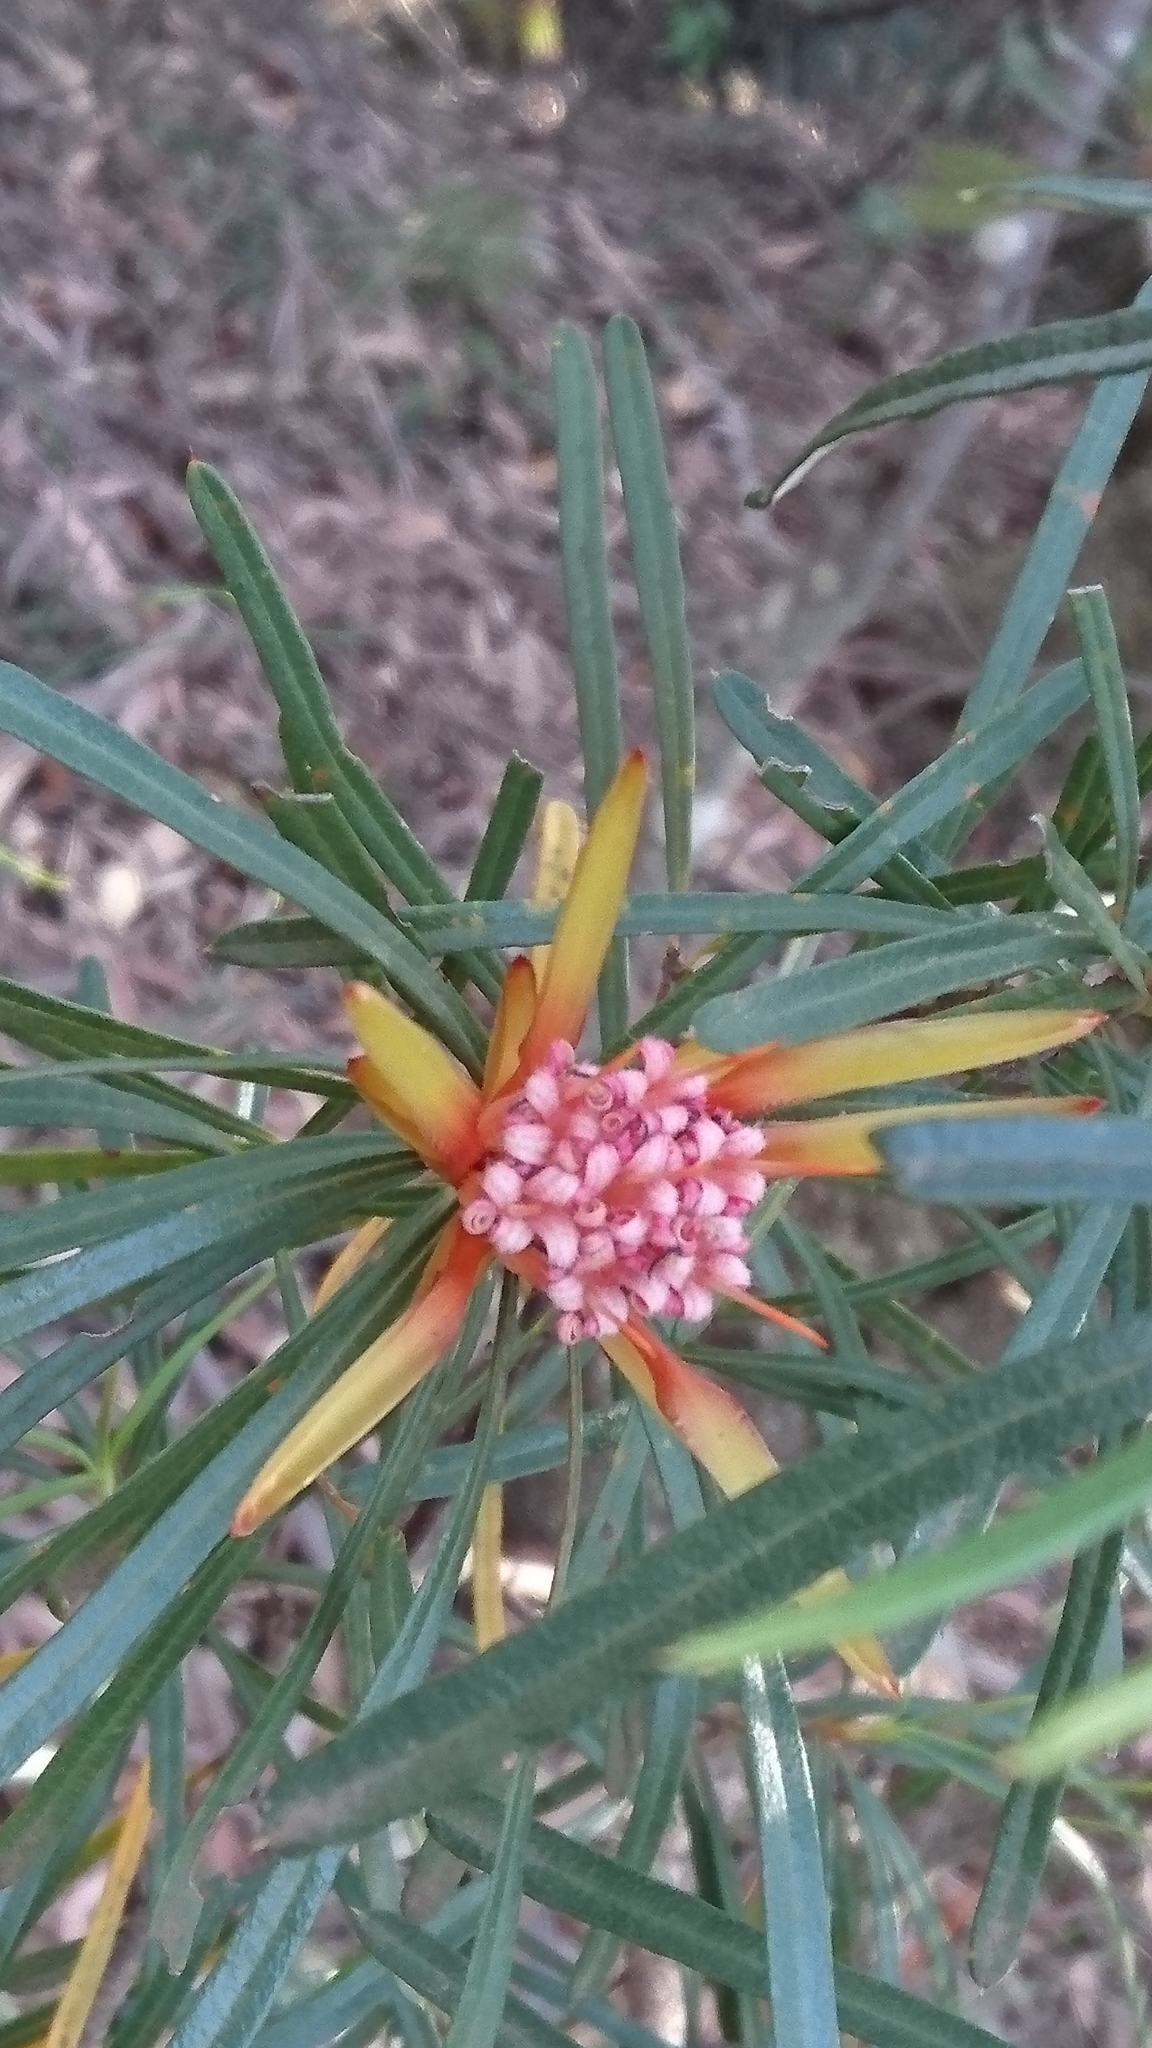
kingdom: Plantae
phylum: Tracheophyta
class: Magnoliopsida
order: Proteales
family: Proteaceae
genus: Lambertia
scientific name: Lambertia formosa
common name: Mountain-devil
